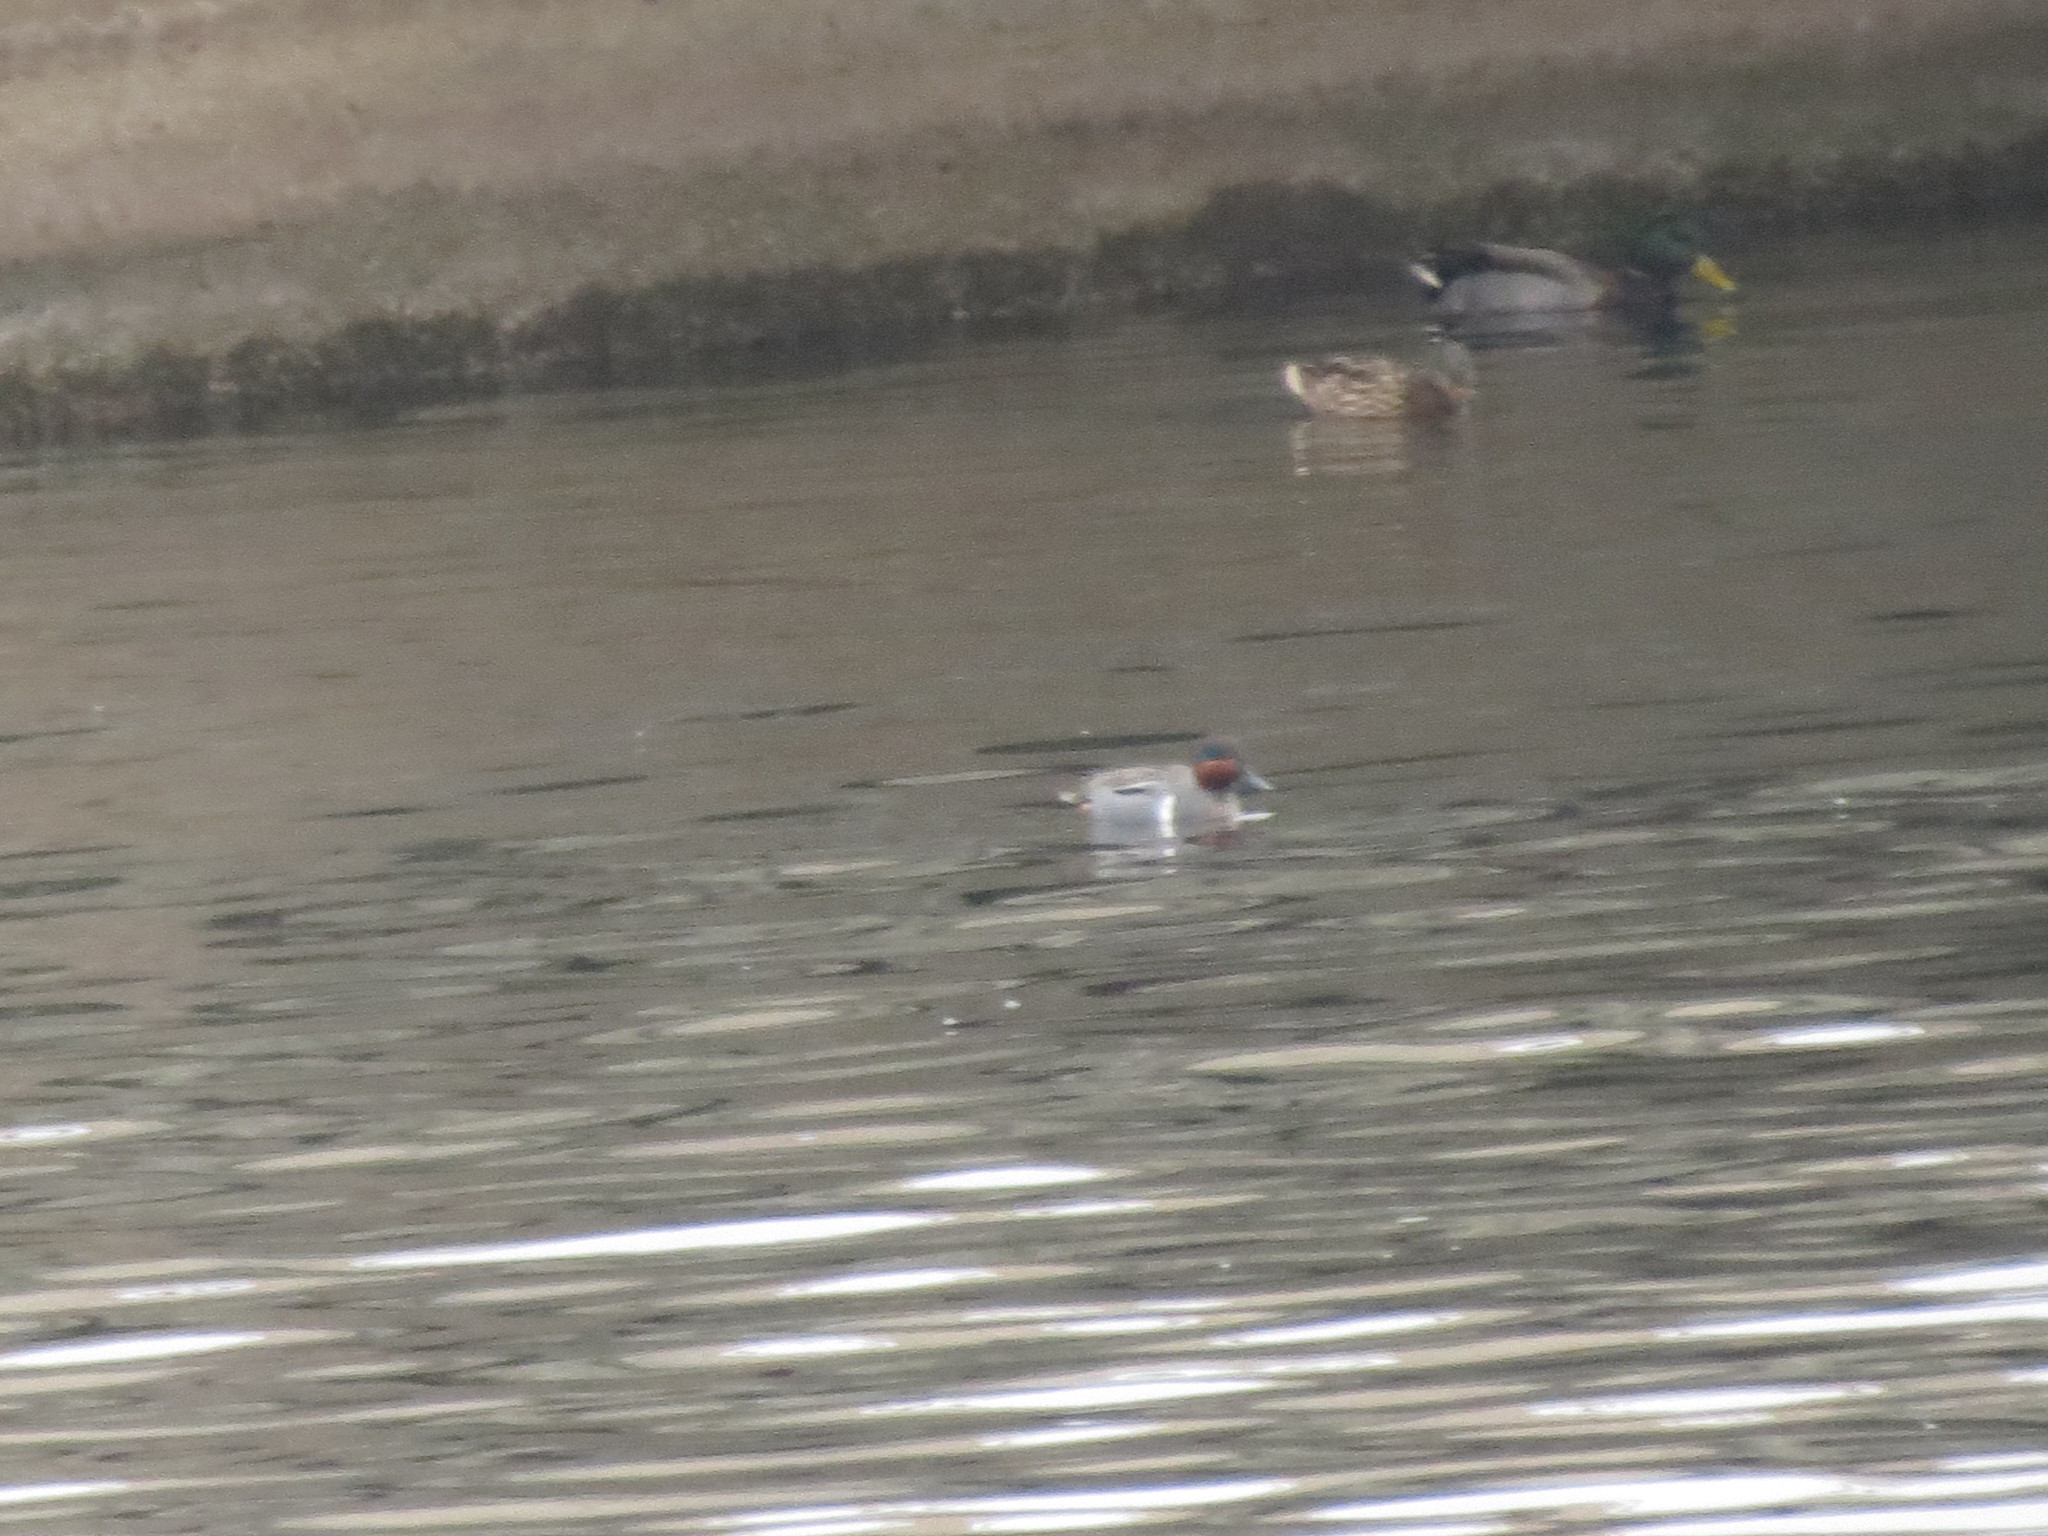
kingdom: Animalia
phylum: Chordata
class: Aves
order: Anseriformes
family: Anatidae
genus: Anas
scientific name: Anas crecca
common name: Eurasian teal
